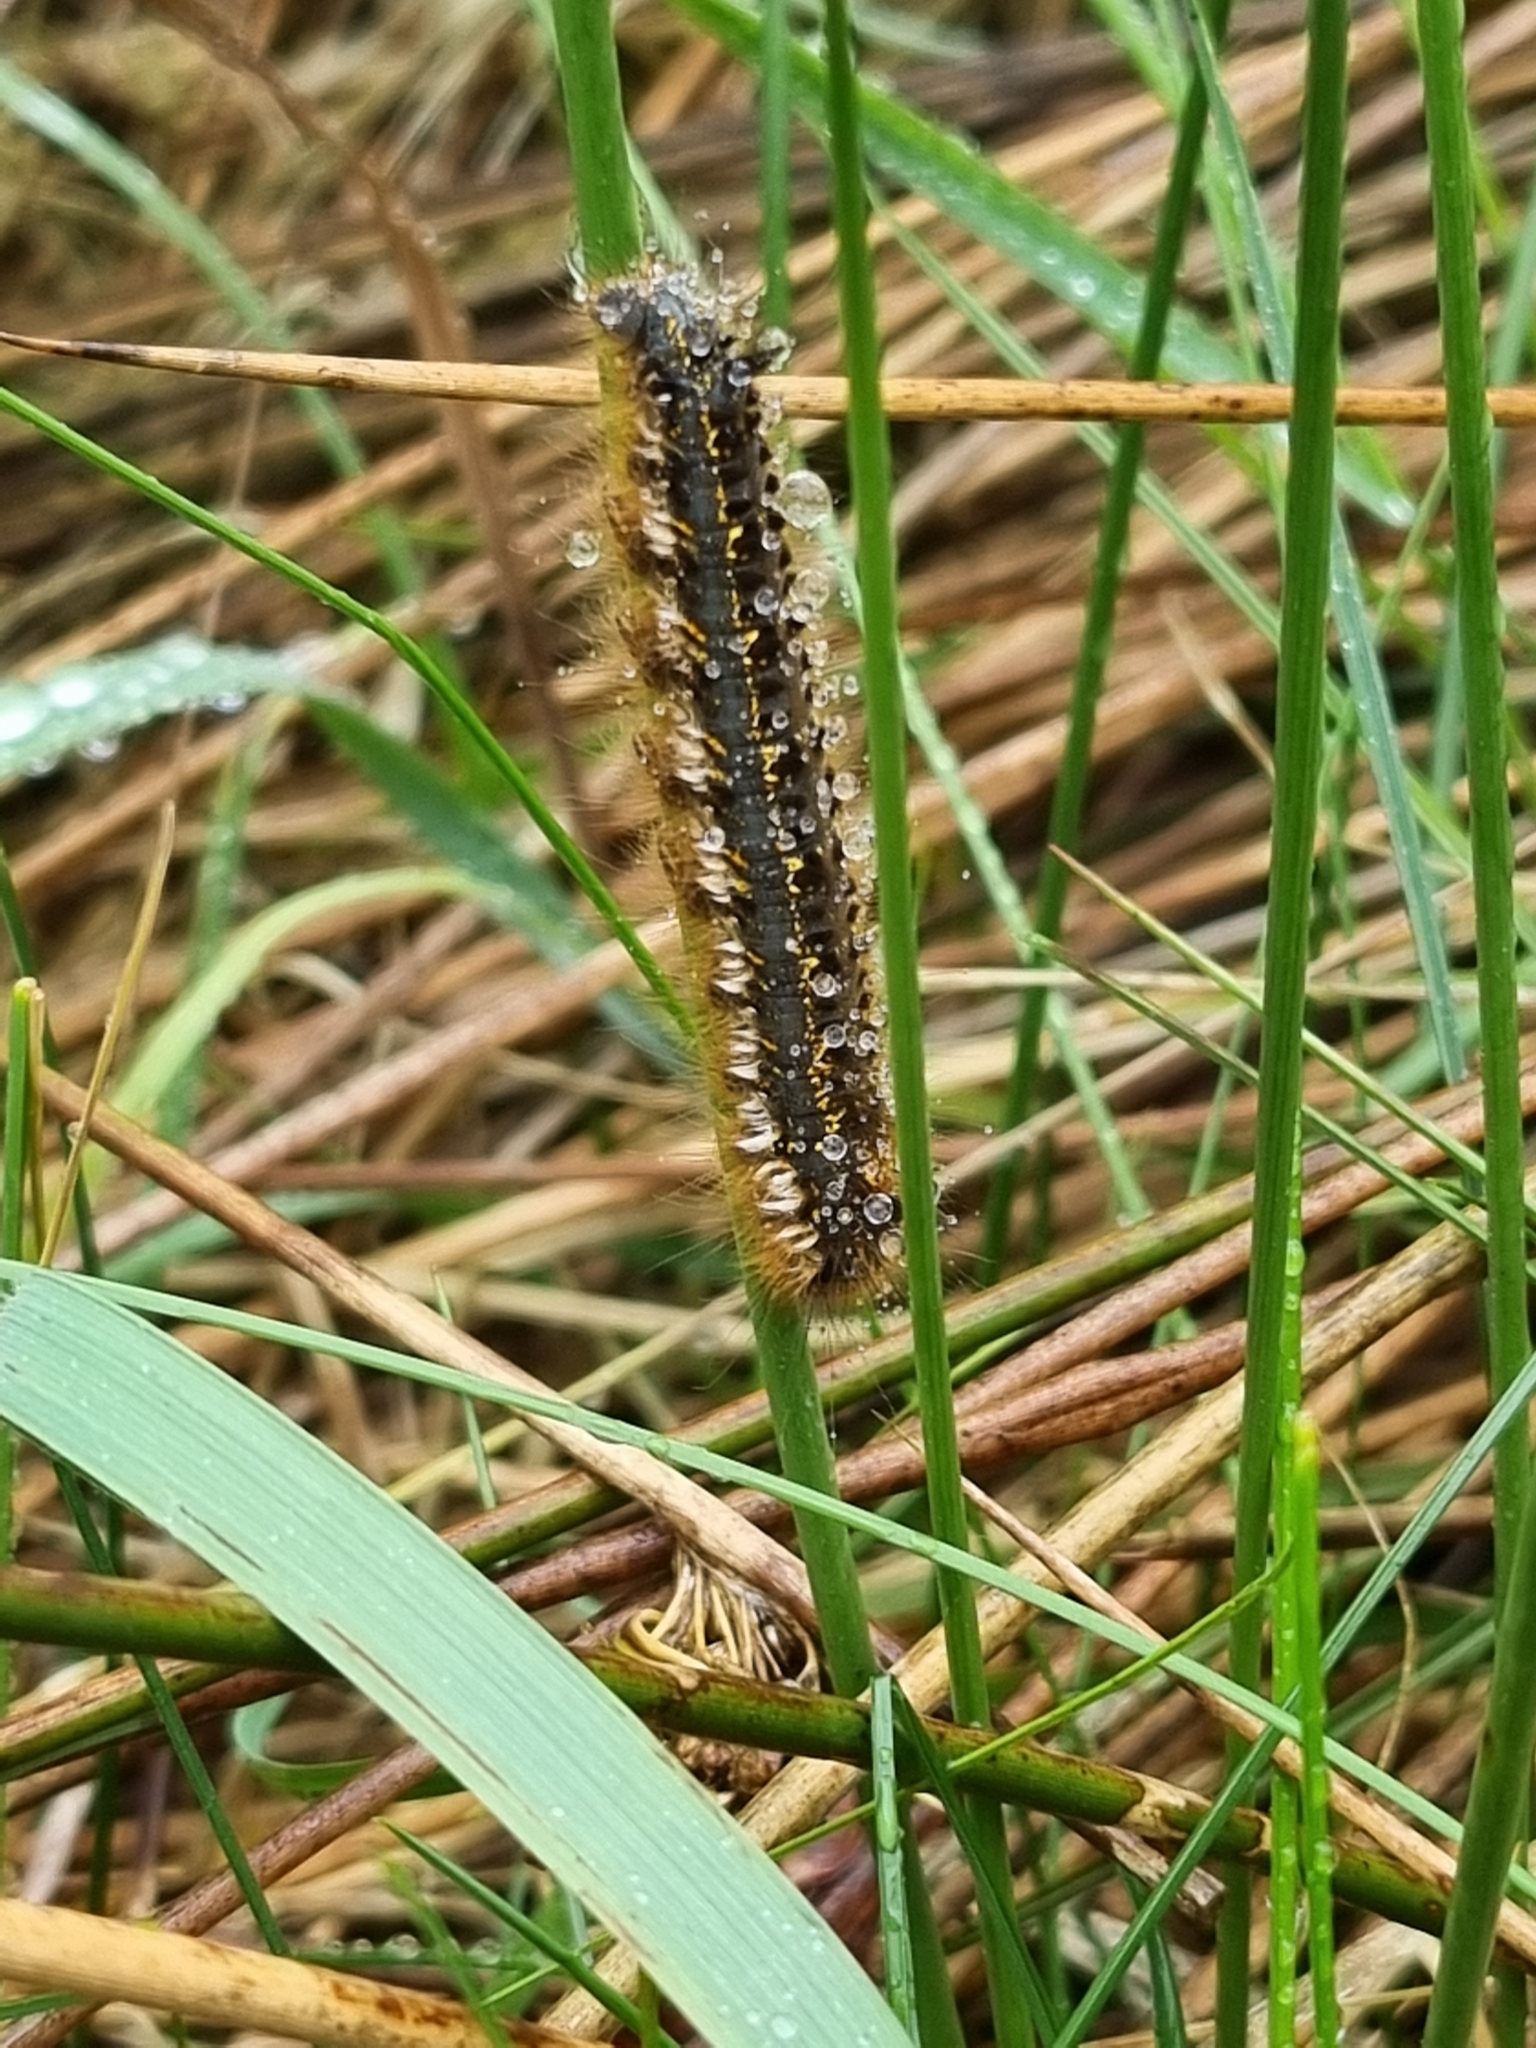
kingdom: Animalia
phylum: Arthropoda
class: Insecta
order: Lepidoptera
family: Lasiocampidae
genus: Euthrix
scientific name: Euthrix potatoria
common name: Drinker
